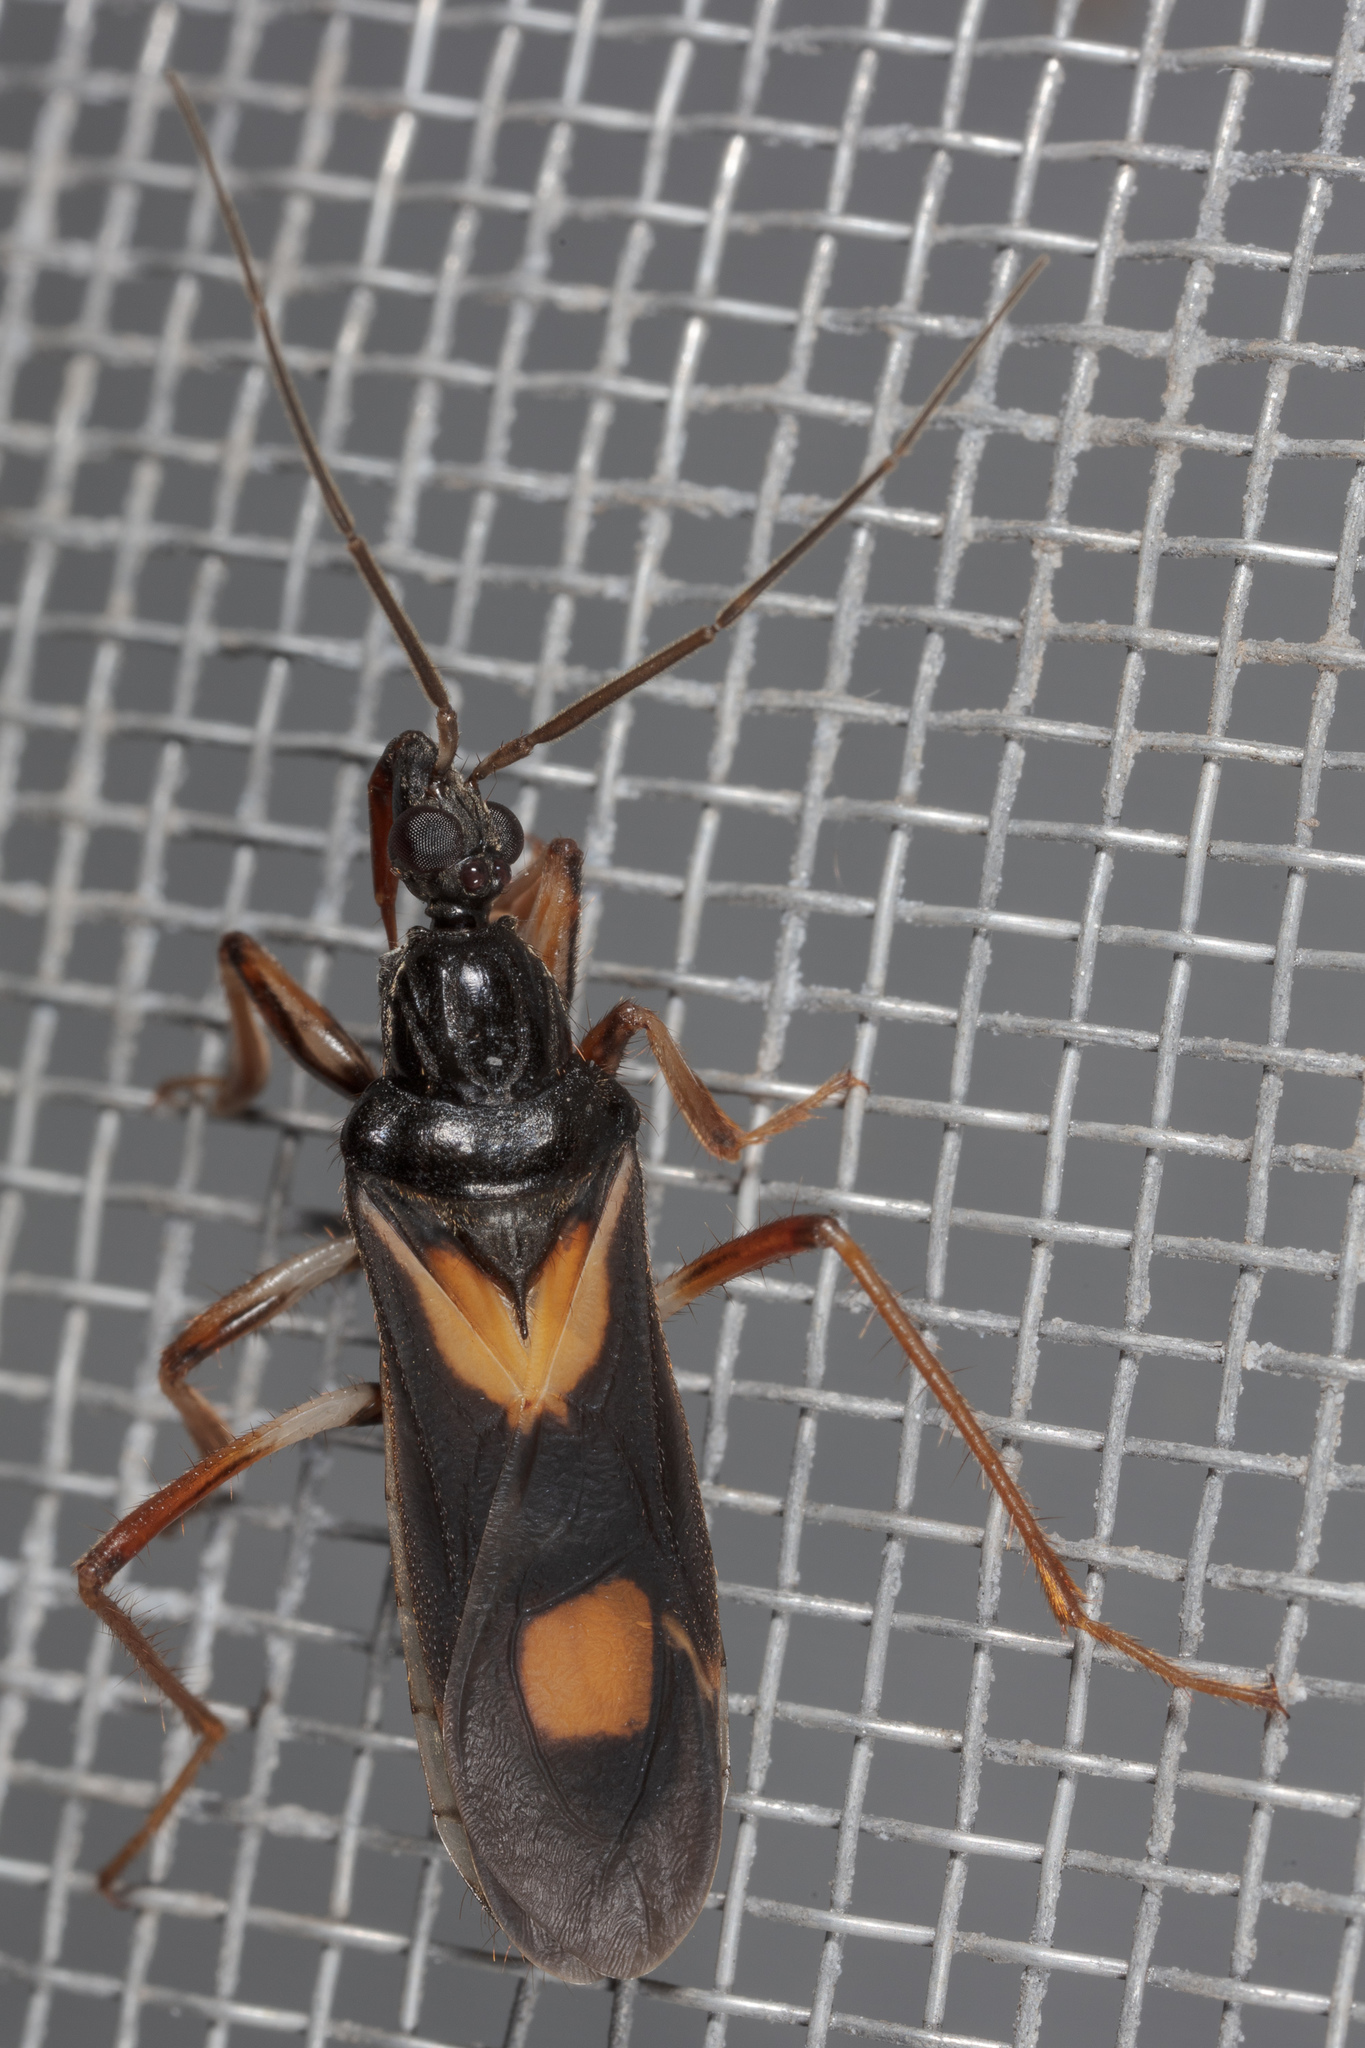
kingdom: Animalia
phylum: Arthropoda
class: Insecta
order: Hemiptera
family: Reduviidae
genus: Rasahus
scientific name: Rasahus hamatus
